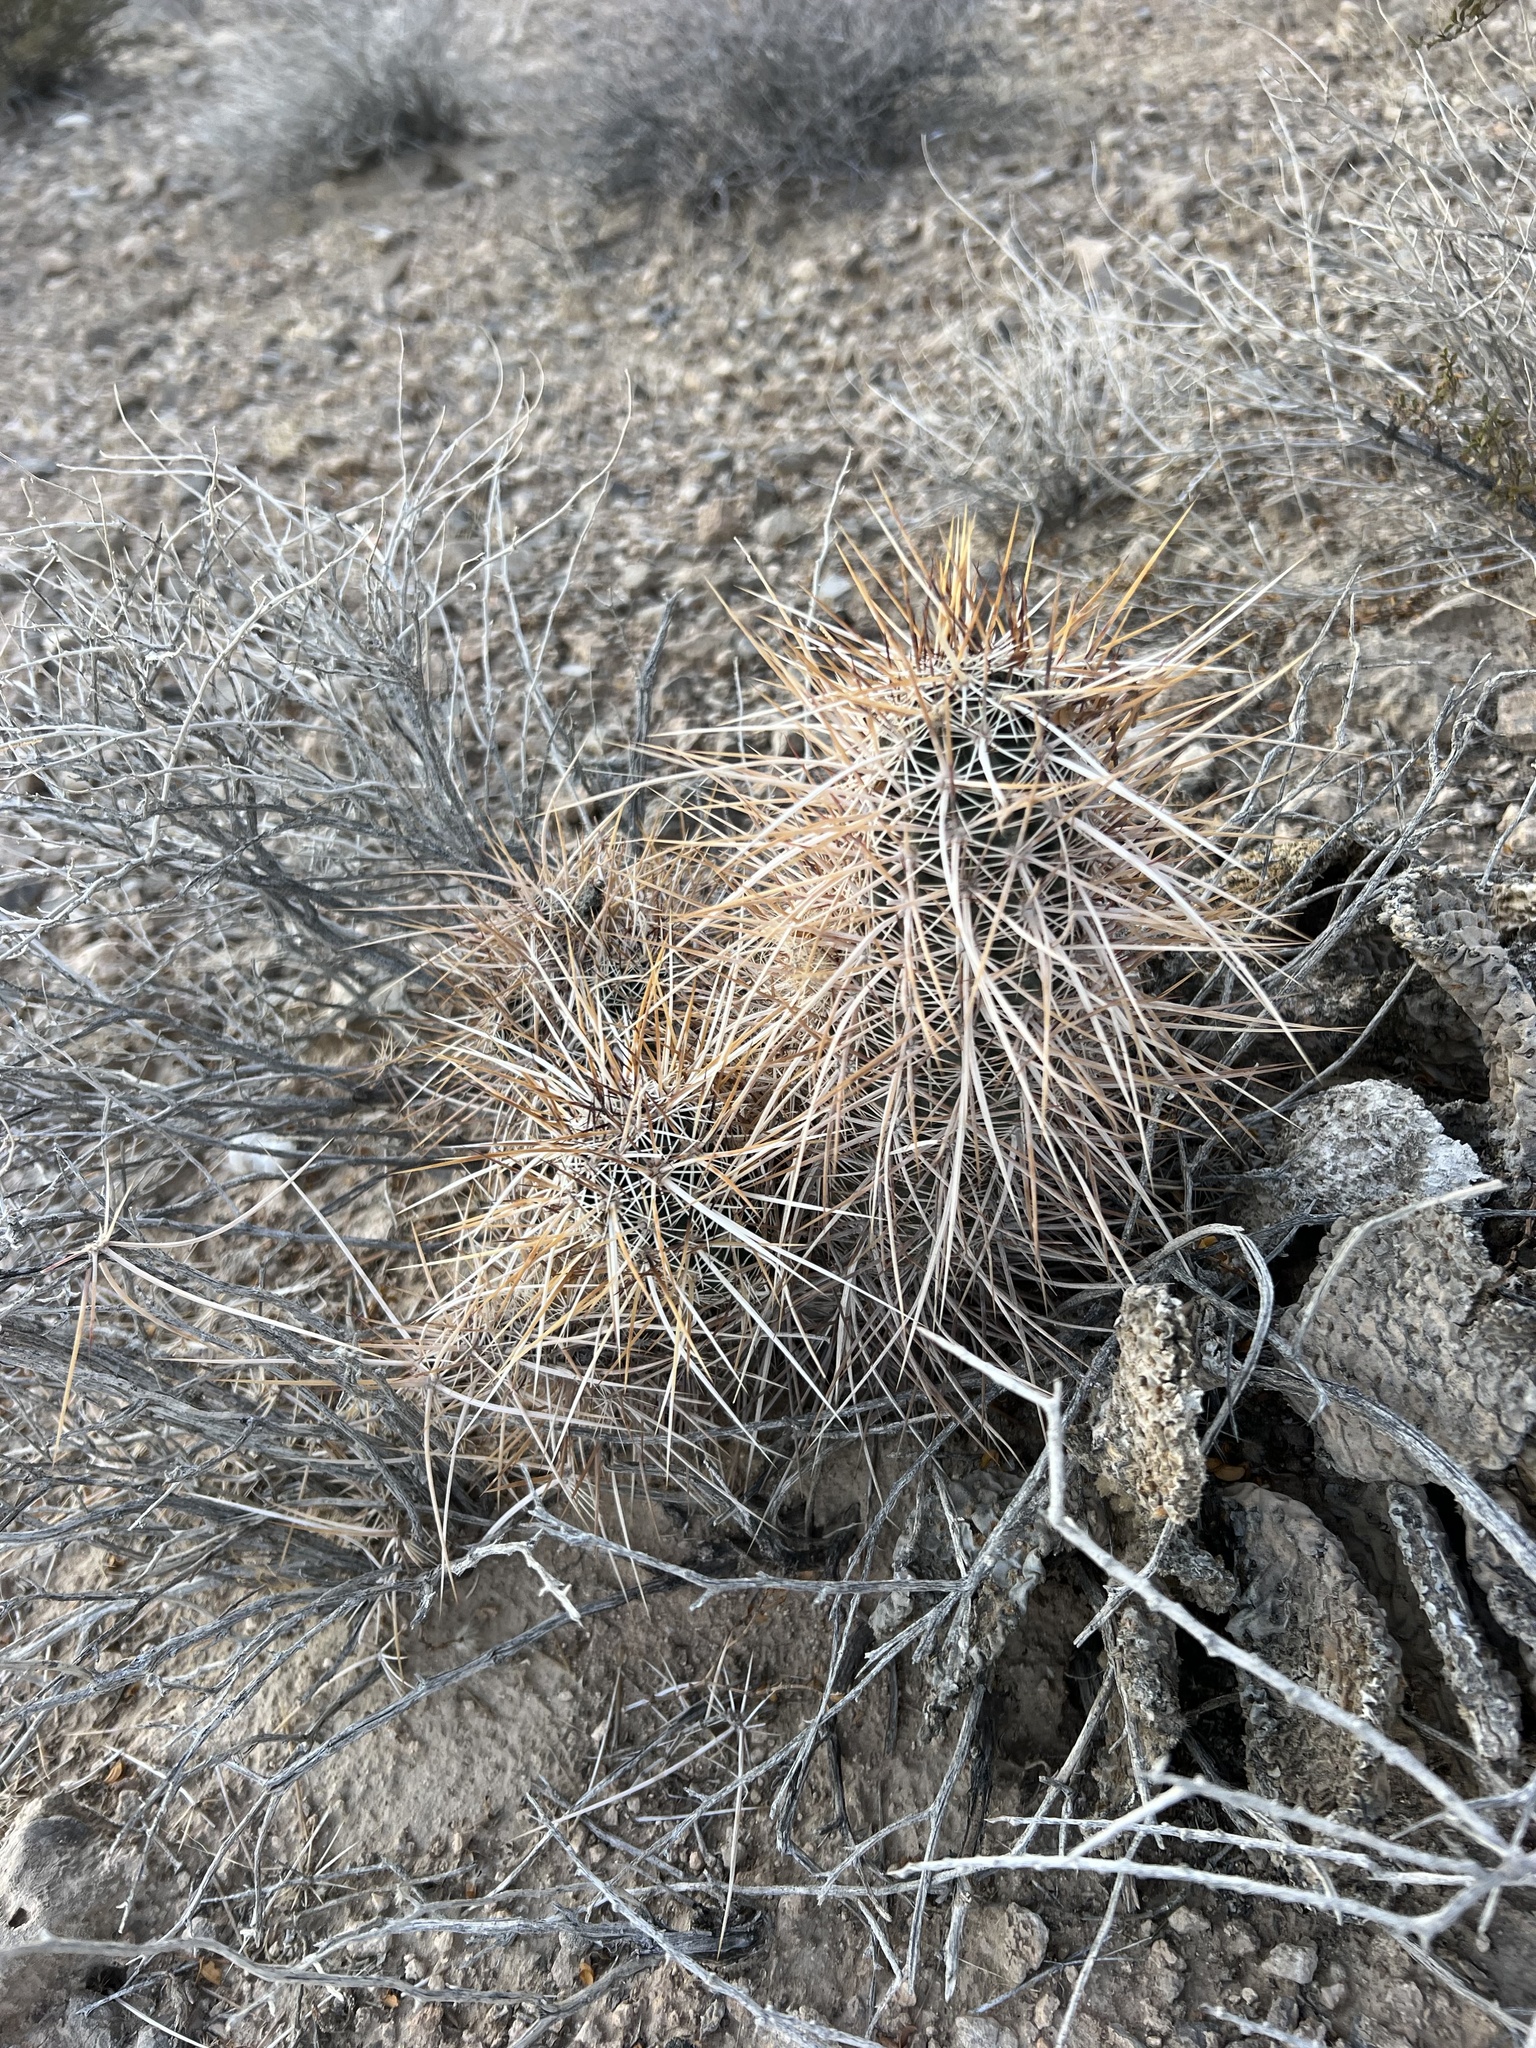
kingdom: Plantae
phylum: Tracheophyta
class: Magnoliopsida
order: Caryophyllales
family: Cactaceae
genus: Echinocereus
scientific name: Echinocereus engelmannii
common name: Engelmann's hedgehog cactus
